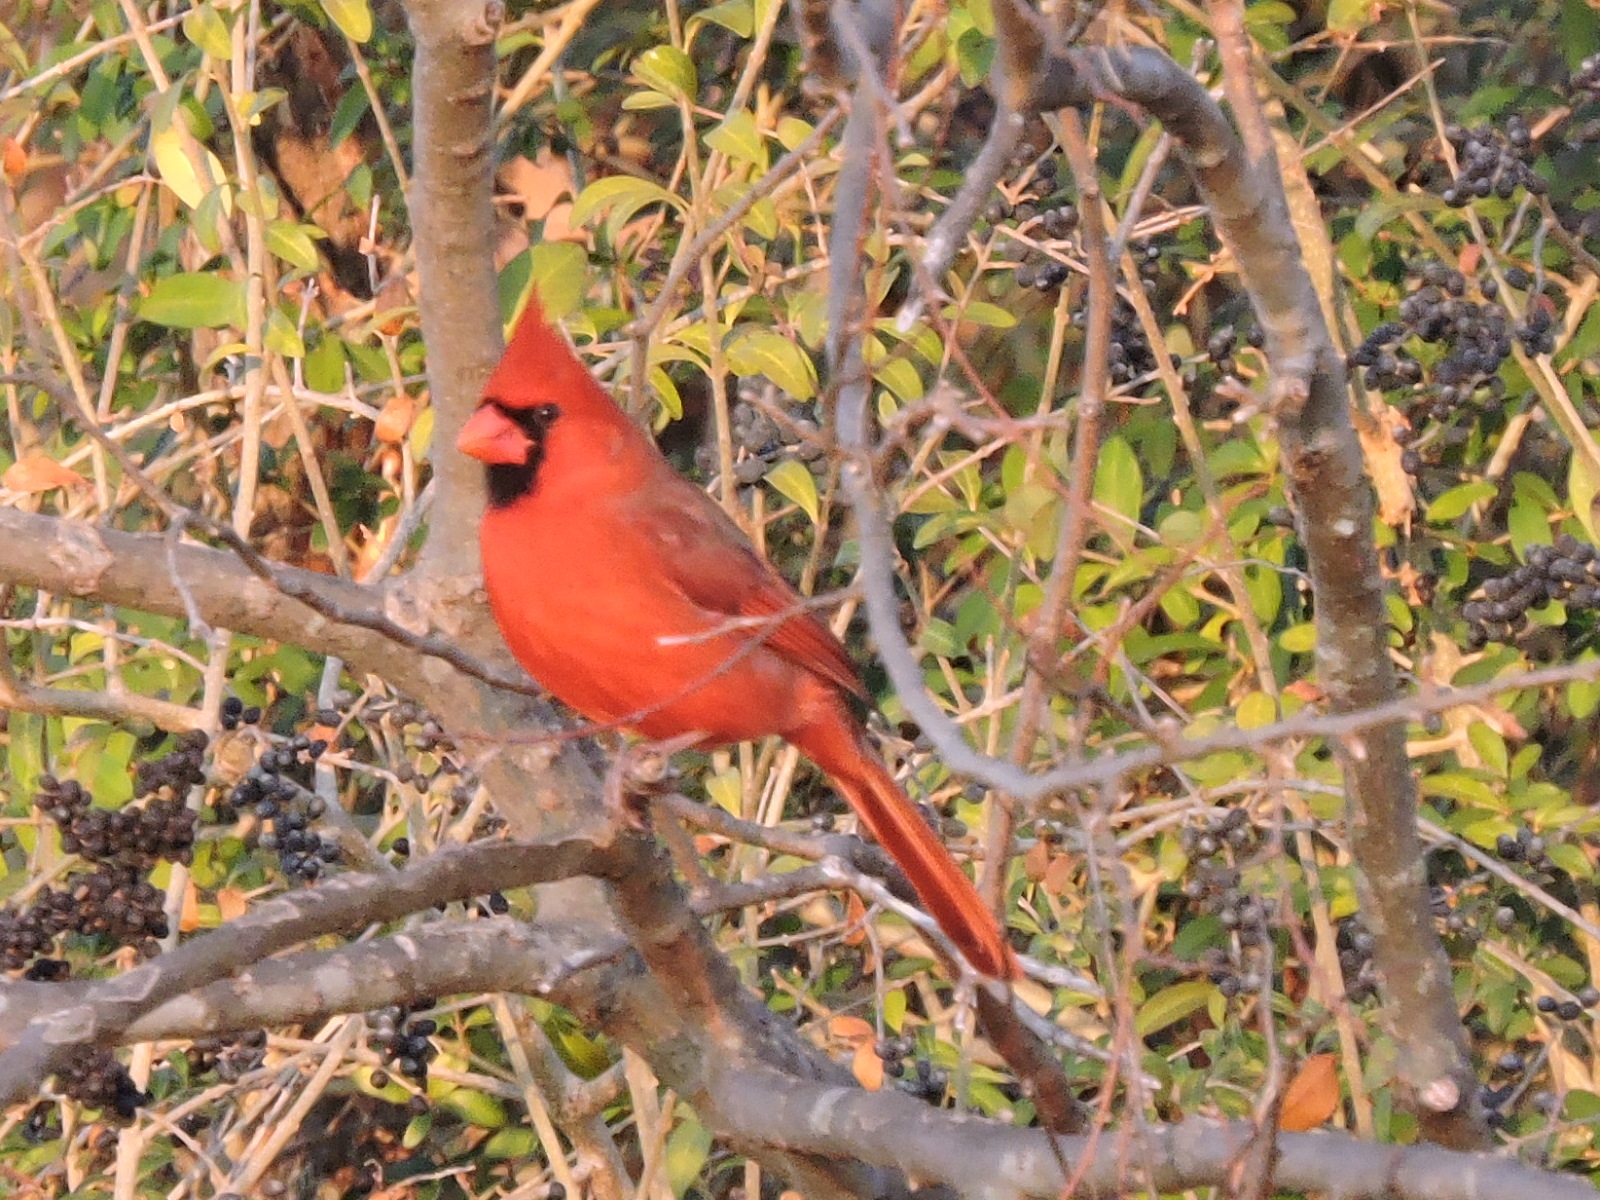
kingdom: Animalia
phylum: Chordata
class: Aves
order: Passeriformes
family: Cardinalidae
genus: Cardinalis
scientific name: Cardinalis cardinalis
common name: Northern cardinal
